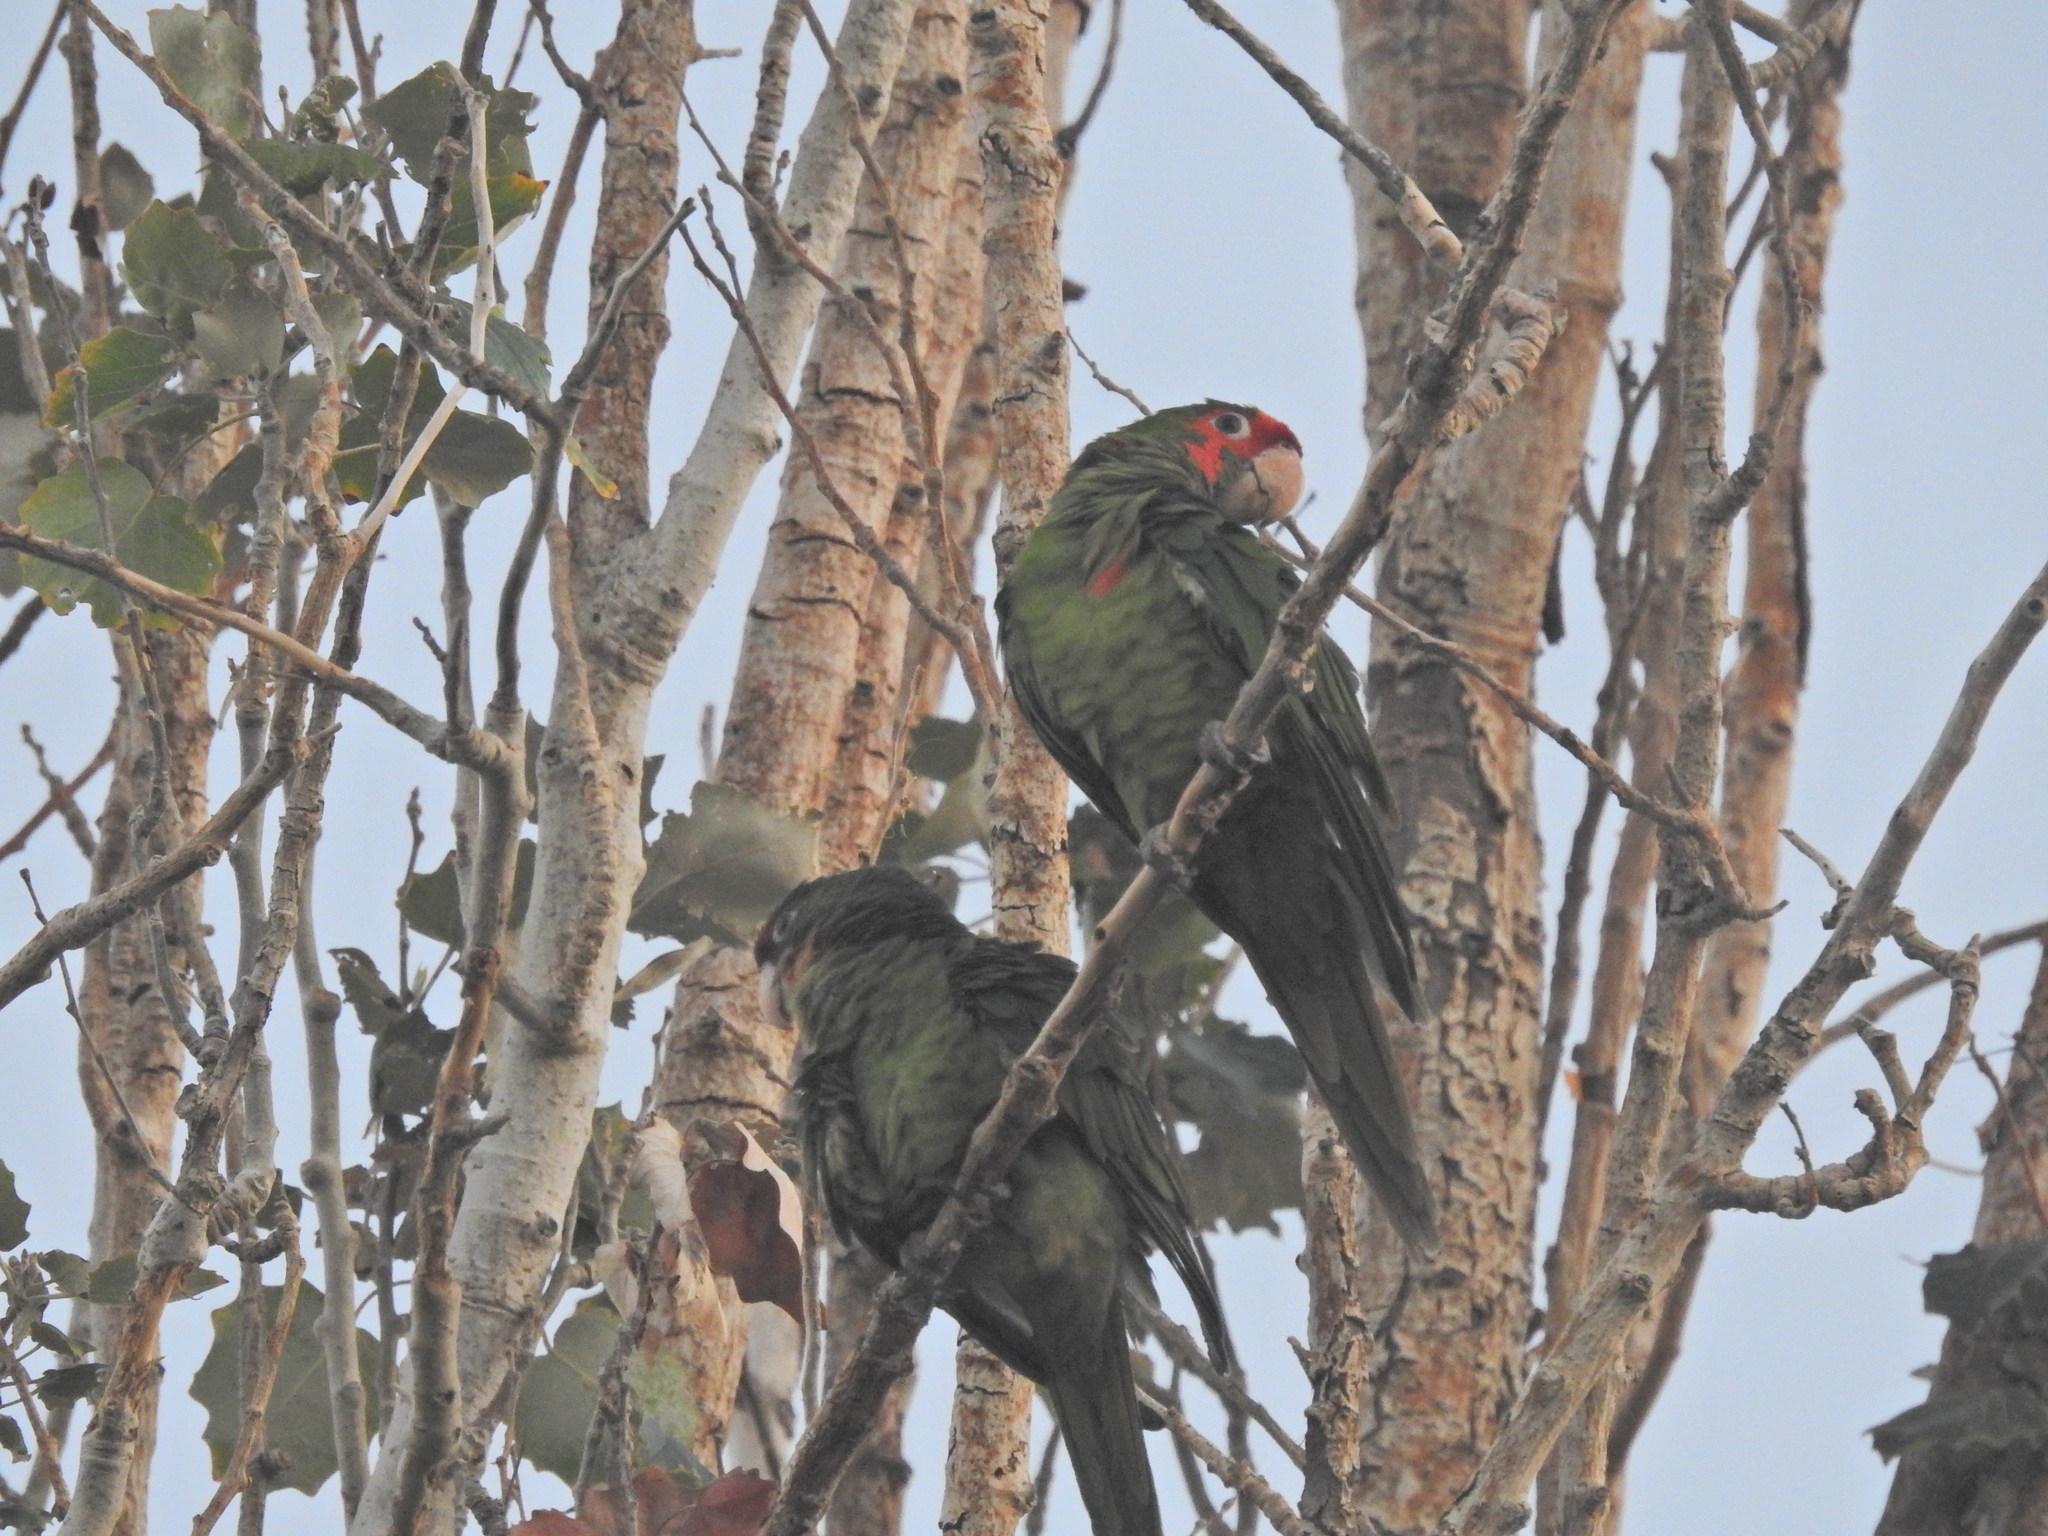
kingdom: Animalia
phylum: Chordata
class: Aves
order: Psittaciformes
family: Psittacidae
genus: Aratinga
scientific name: Aratinga mitrata
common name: Mitred parakeet
